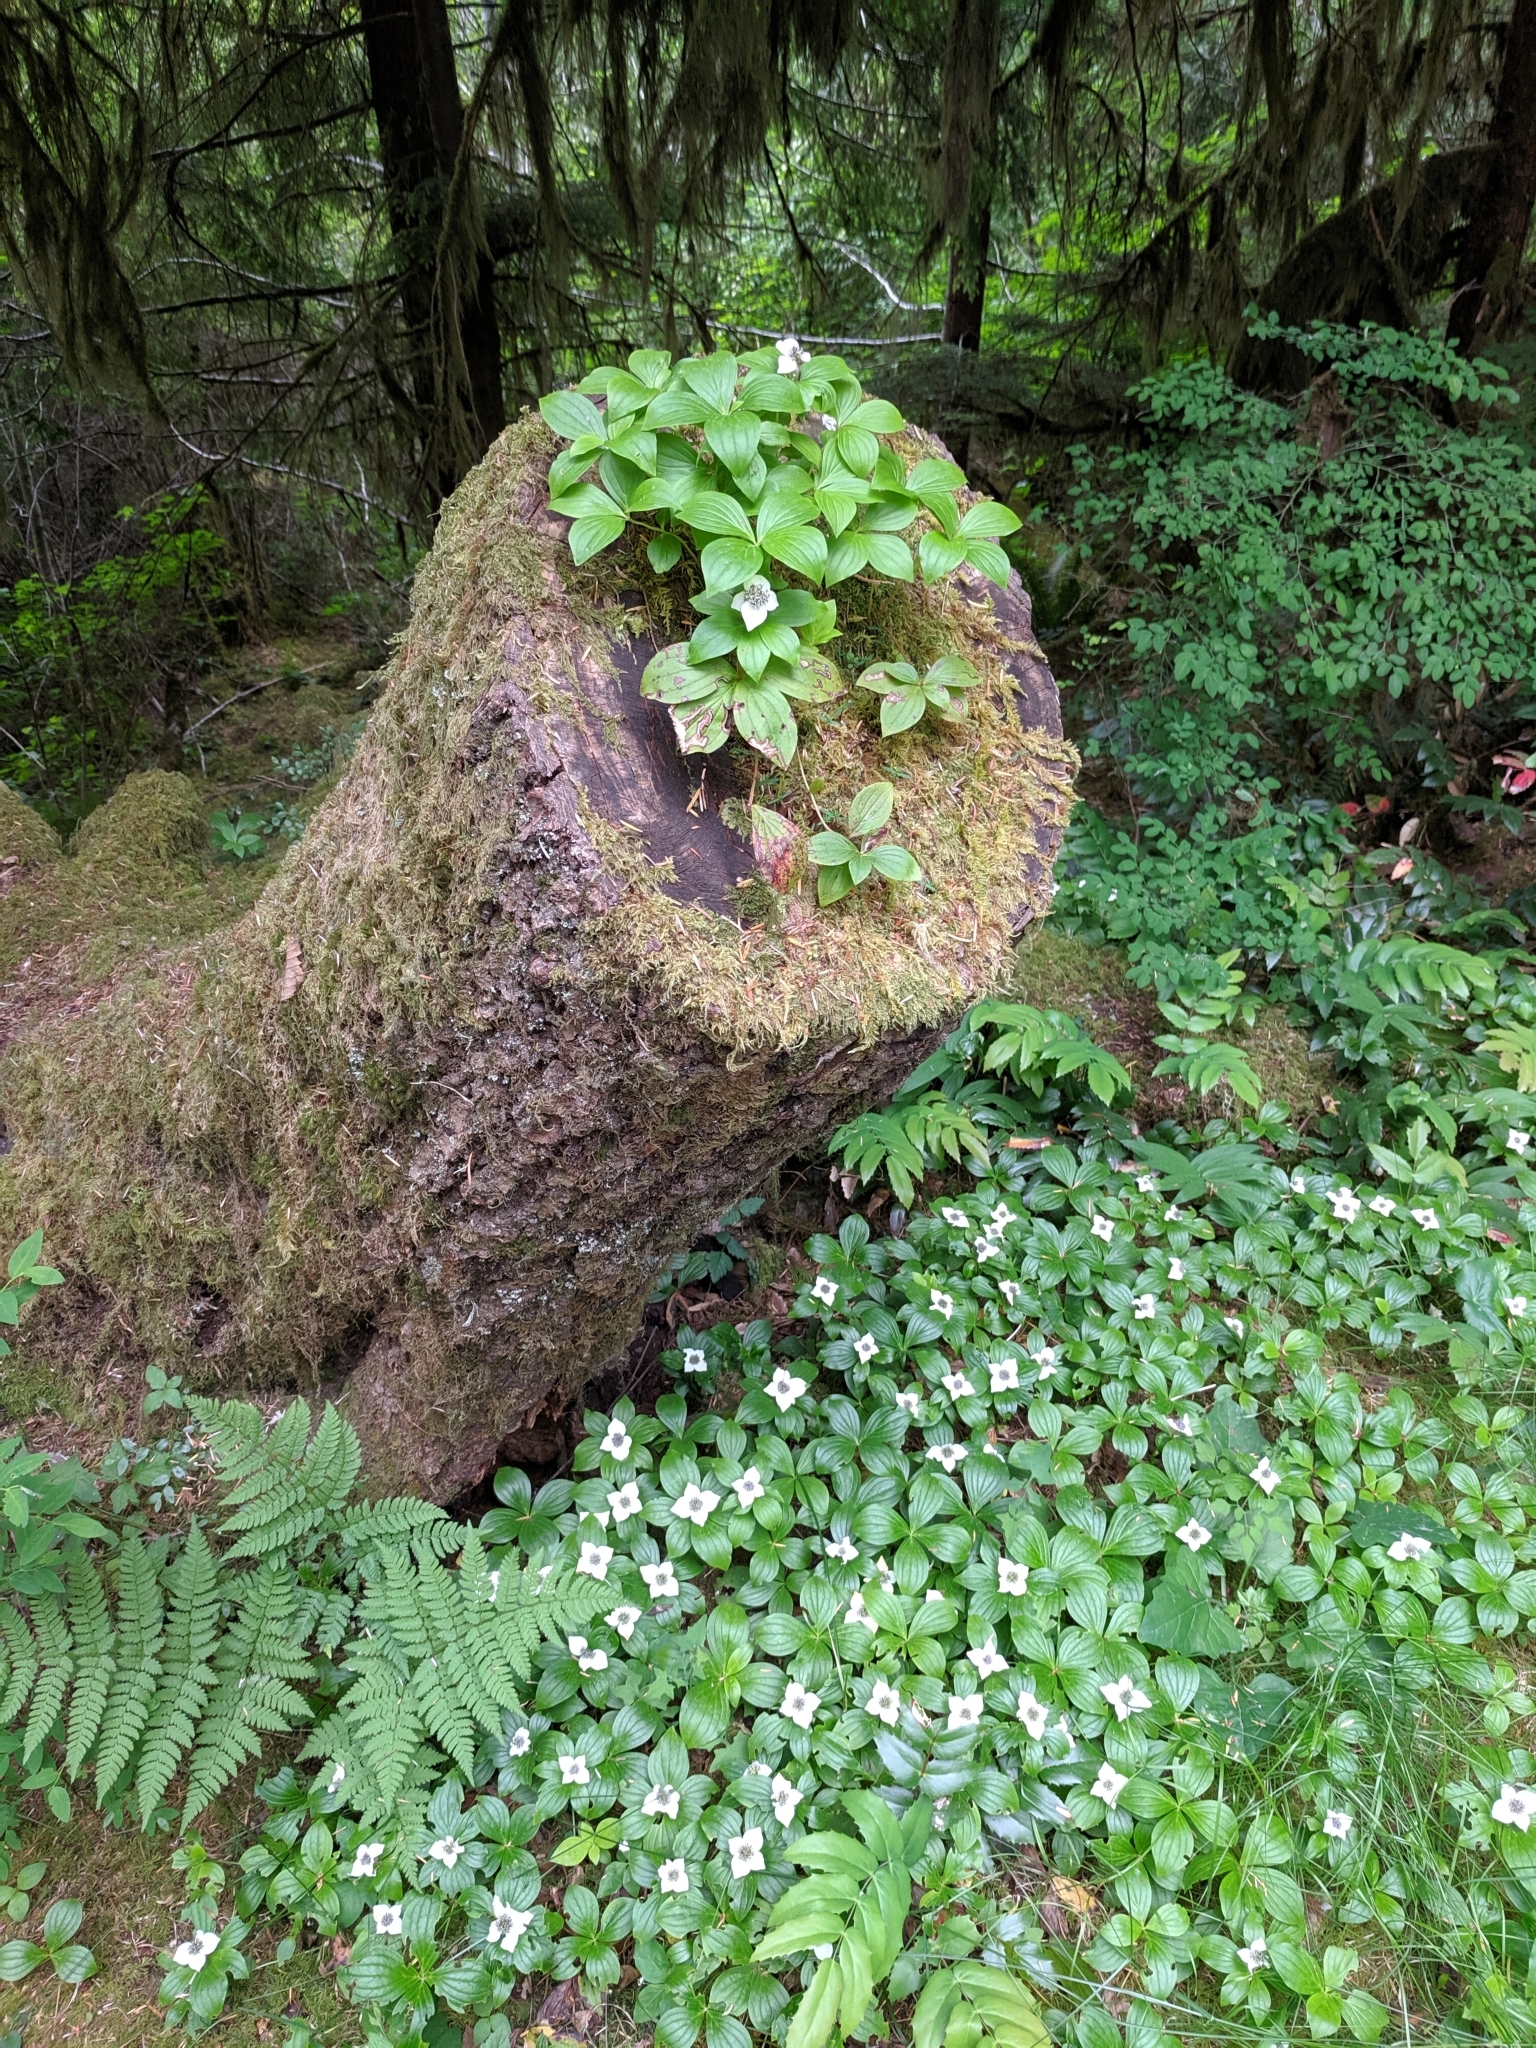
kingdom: Plantae
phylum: Tracheophyta
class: Magnoliopsida
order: Cornales
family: Cornaceae
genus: Cornus
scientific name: Cornus unalaschkensis
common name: Alaska bunchberry
